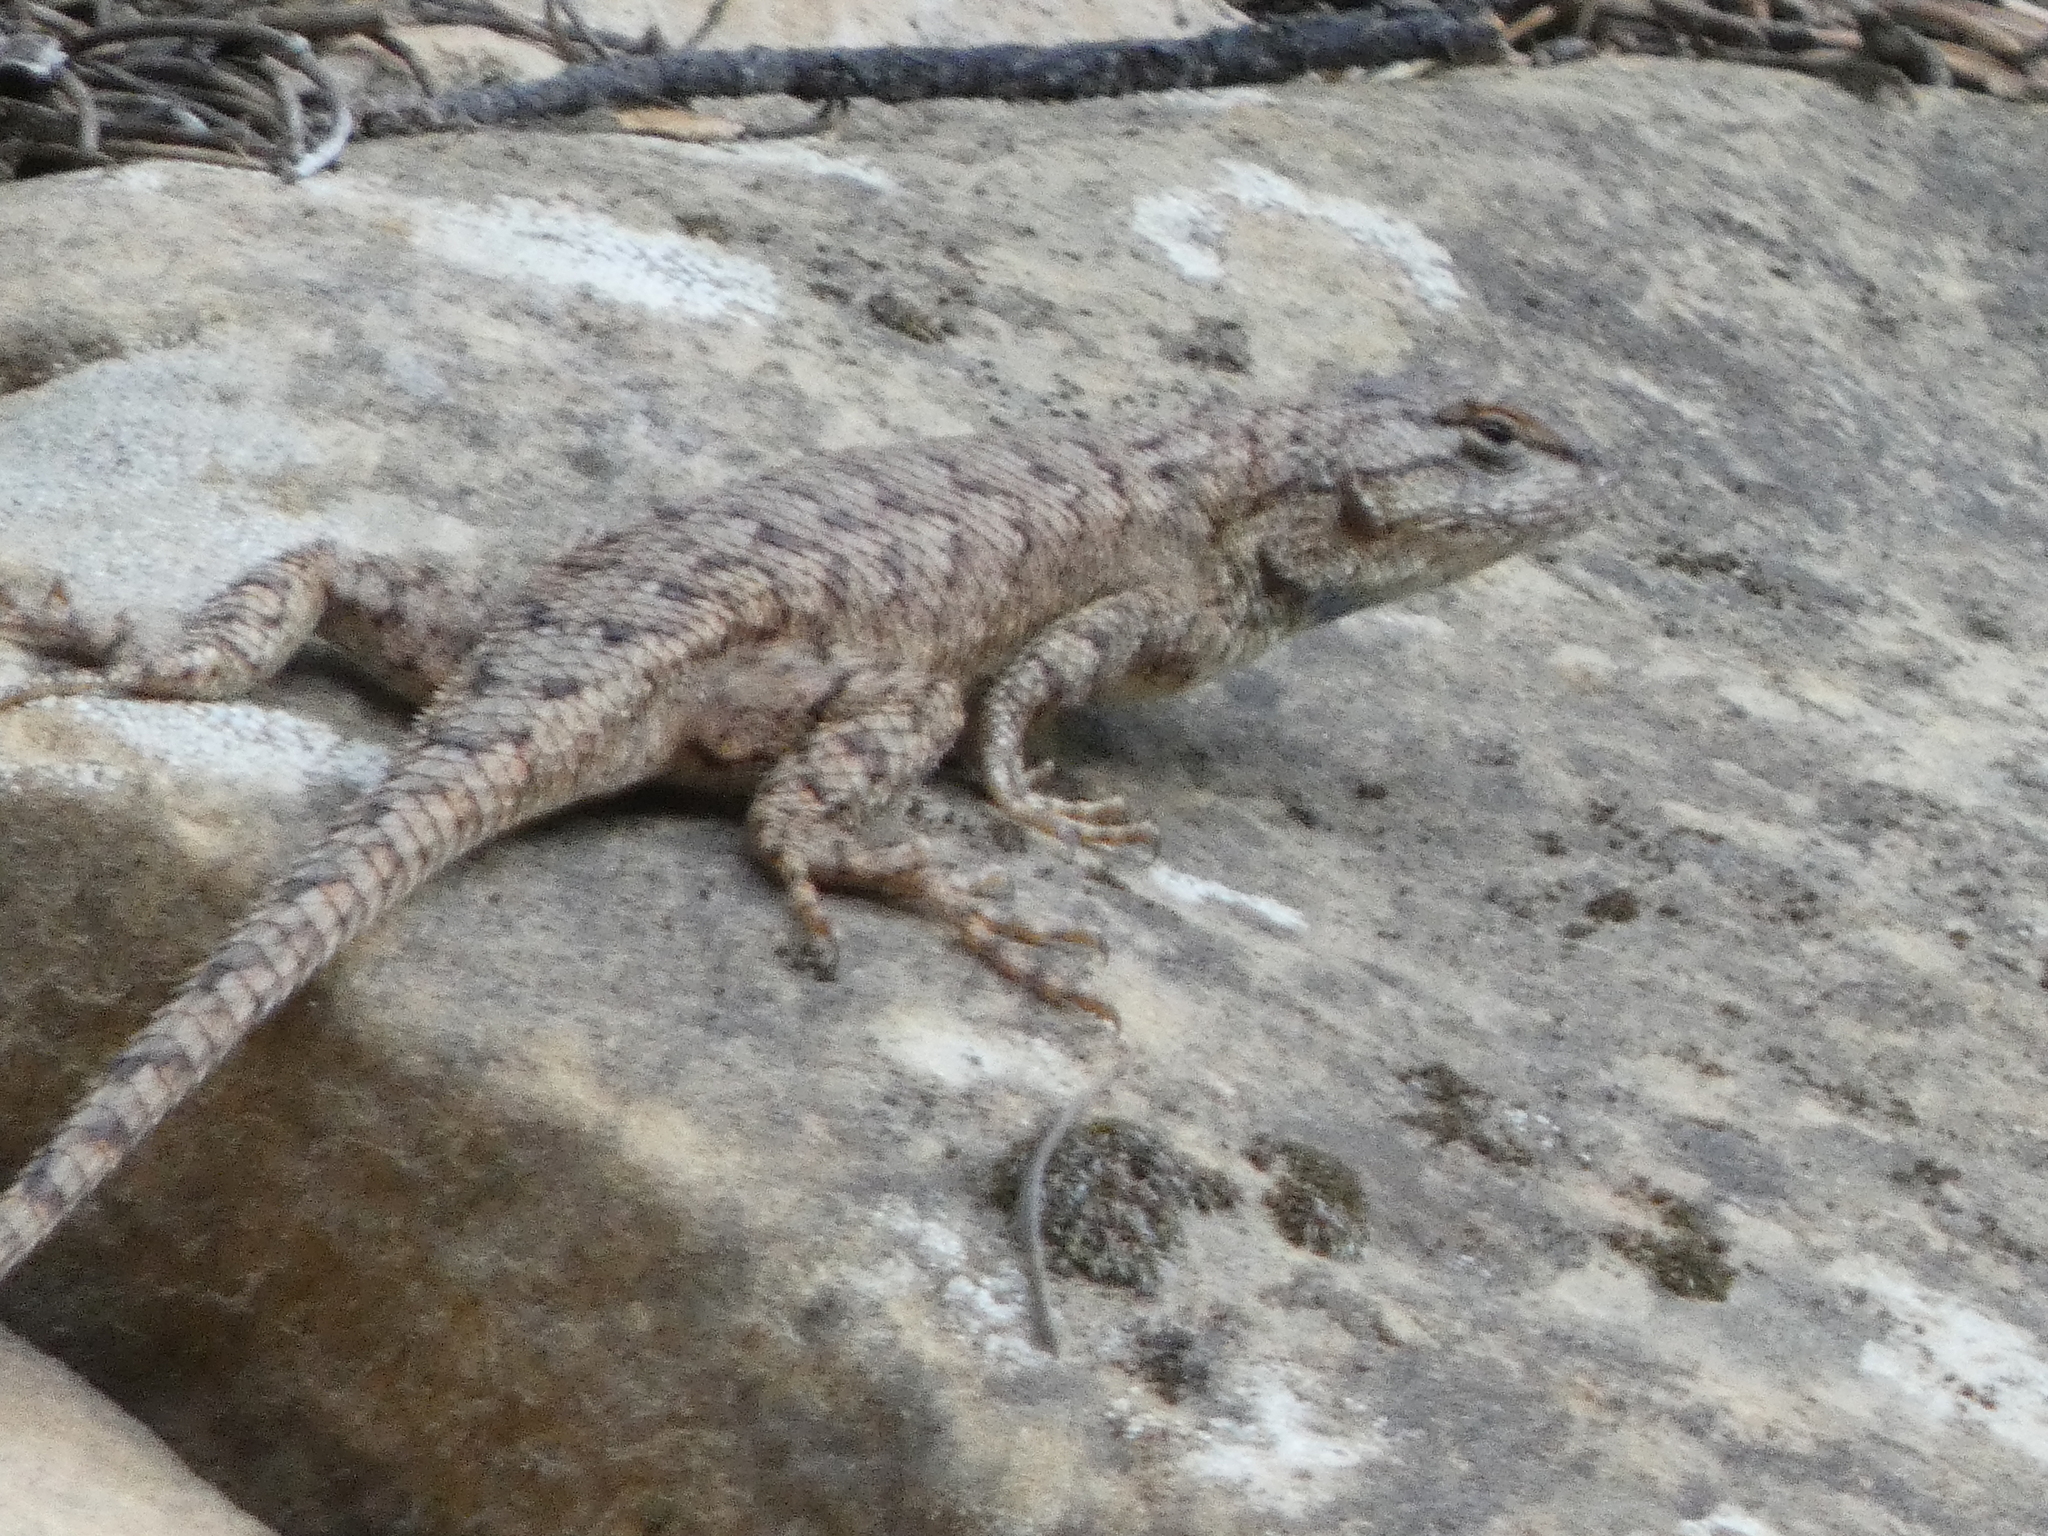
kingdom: Animalia
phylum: Chordata
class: Squamata
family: Phrynosomatidae
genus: Sceloporus
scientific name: Sceloporus tristichus
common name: Plateau fence lizard
